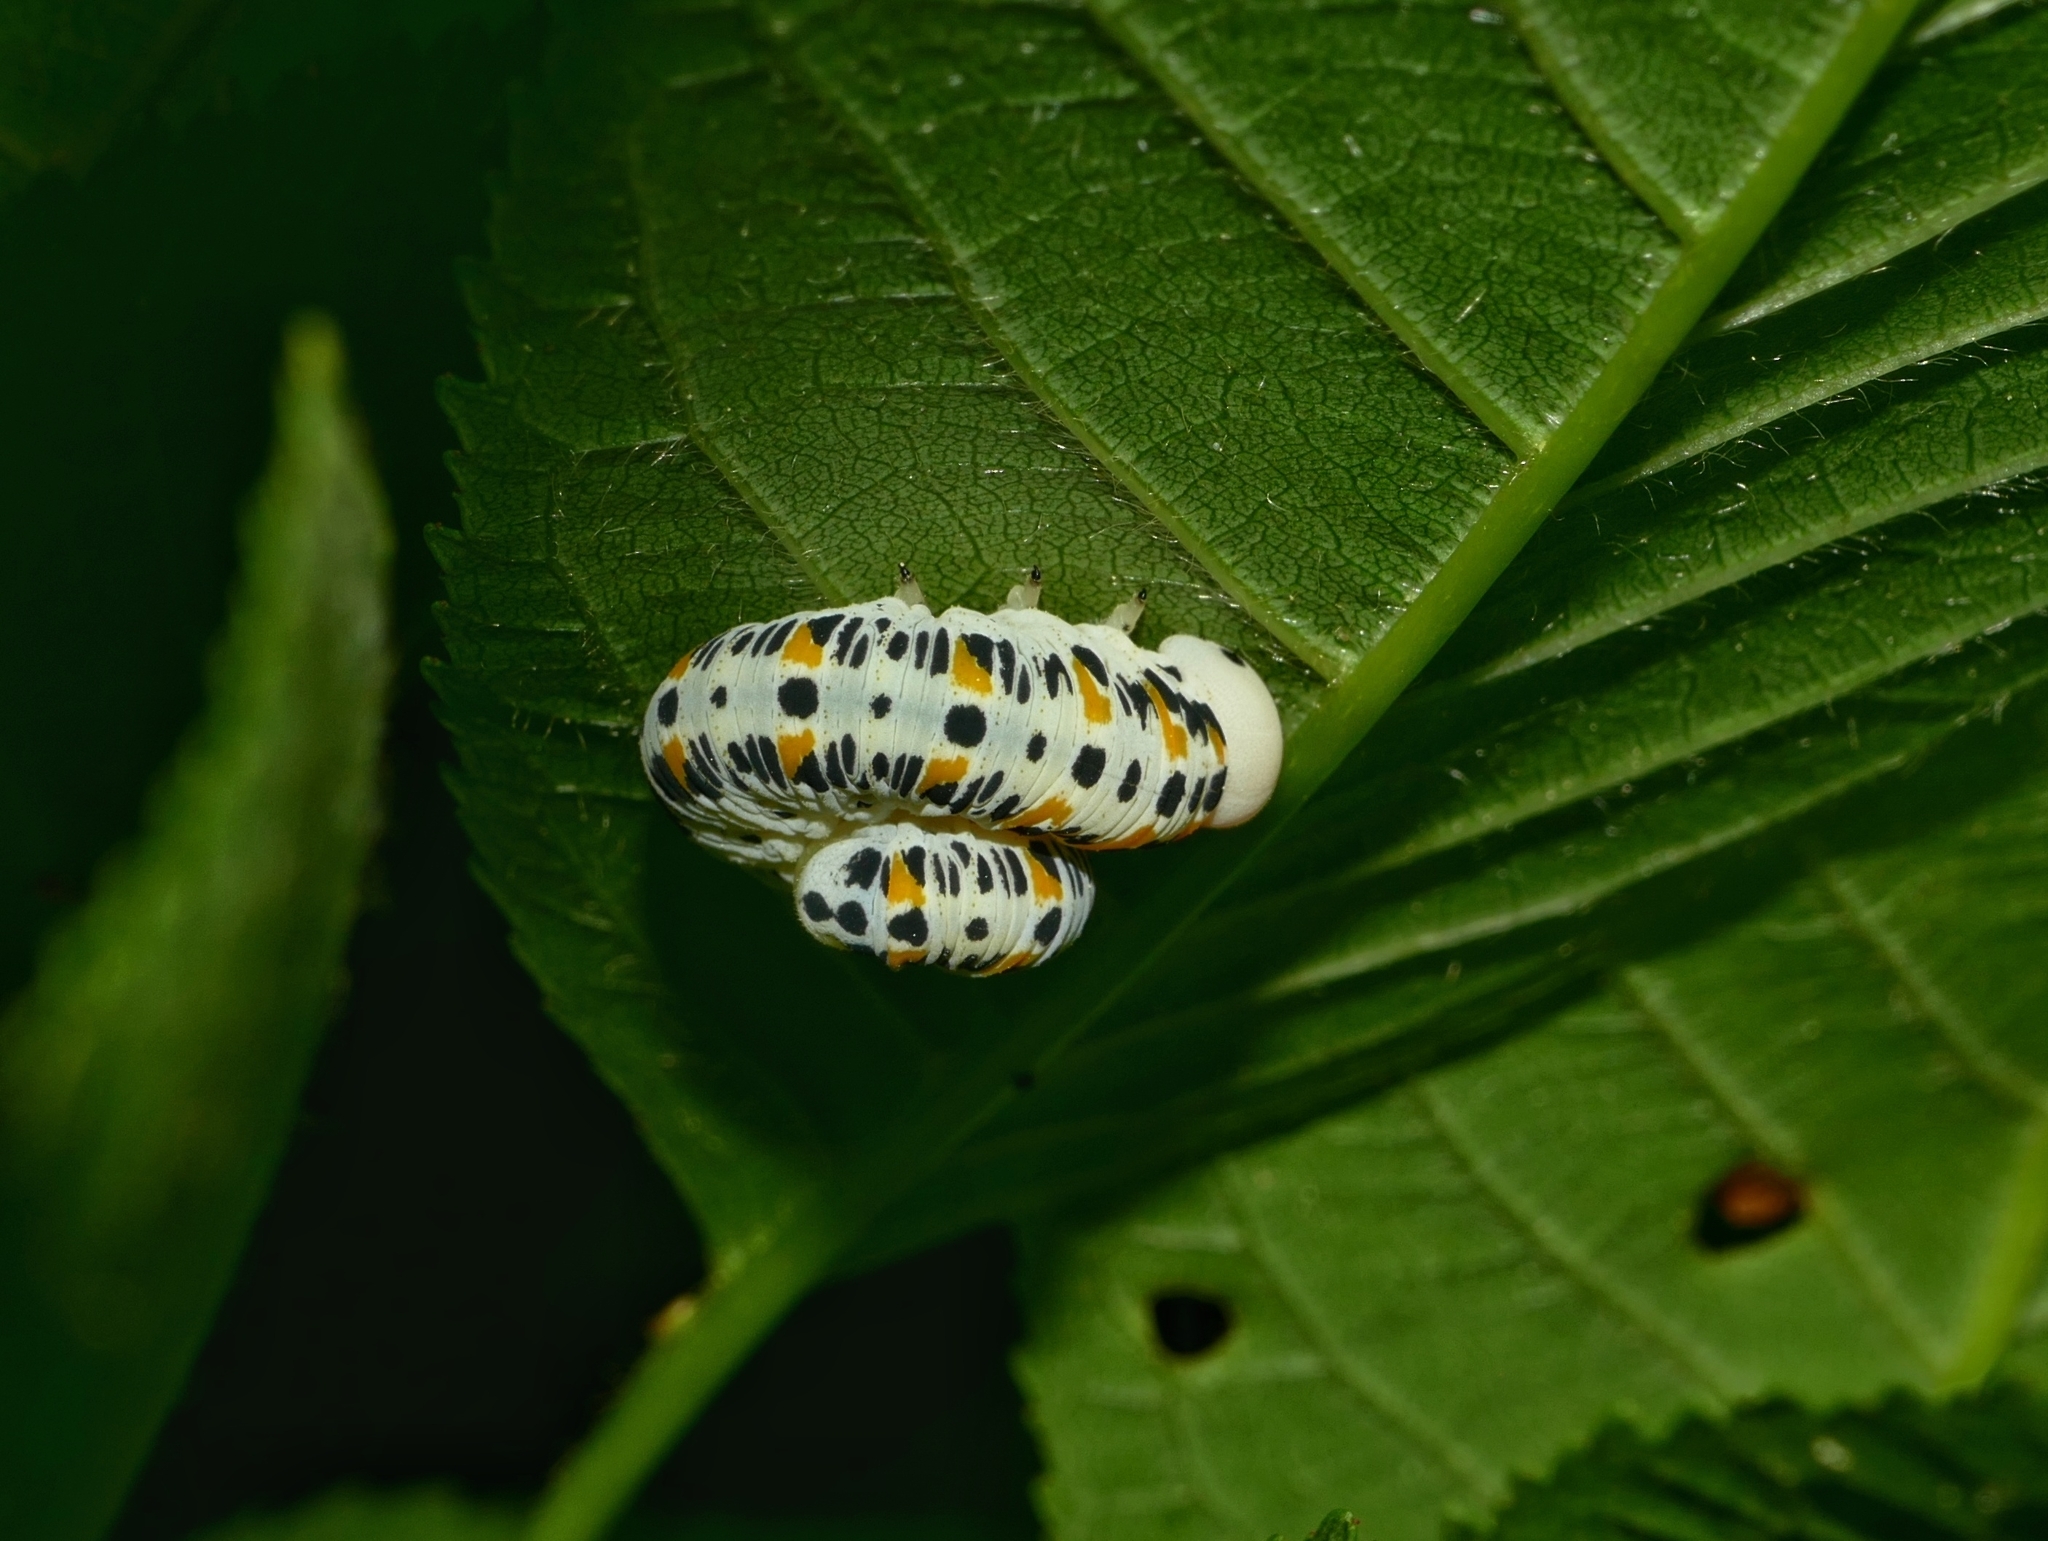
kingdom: Animalia
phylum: Arthropoda
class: Insecta
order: Hymenoptera
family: Cimbicidae
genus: Cimbex
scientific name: Cimbex quadrimaculatus
